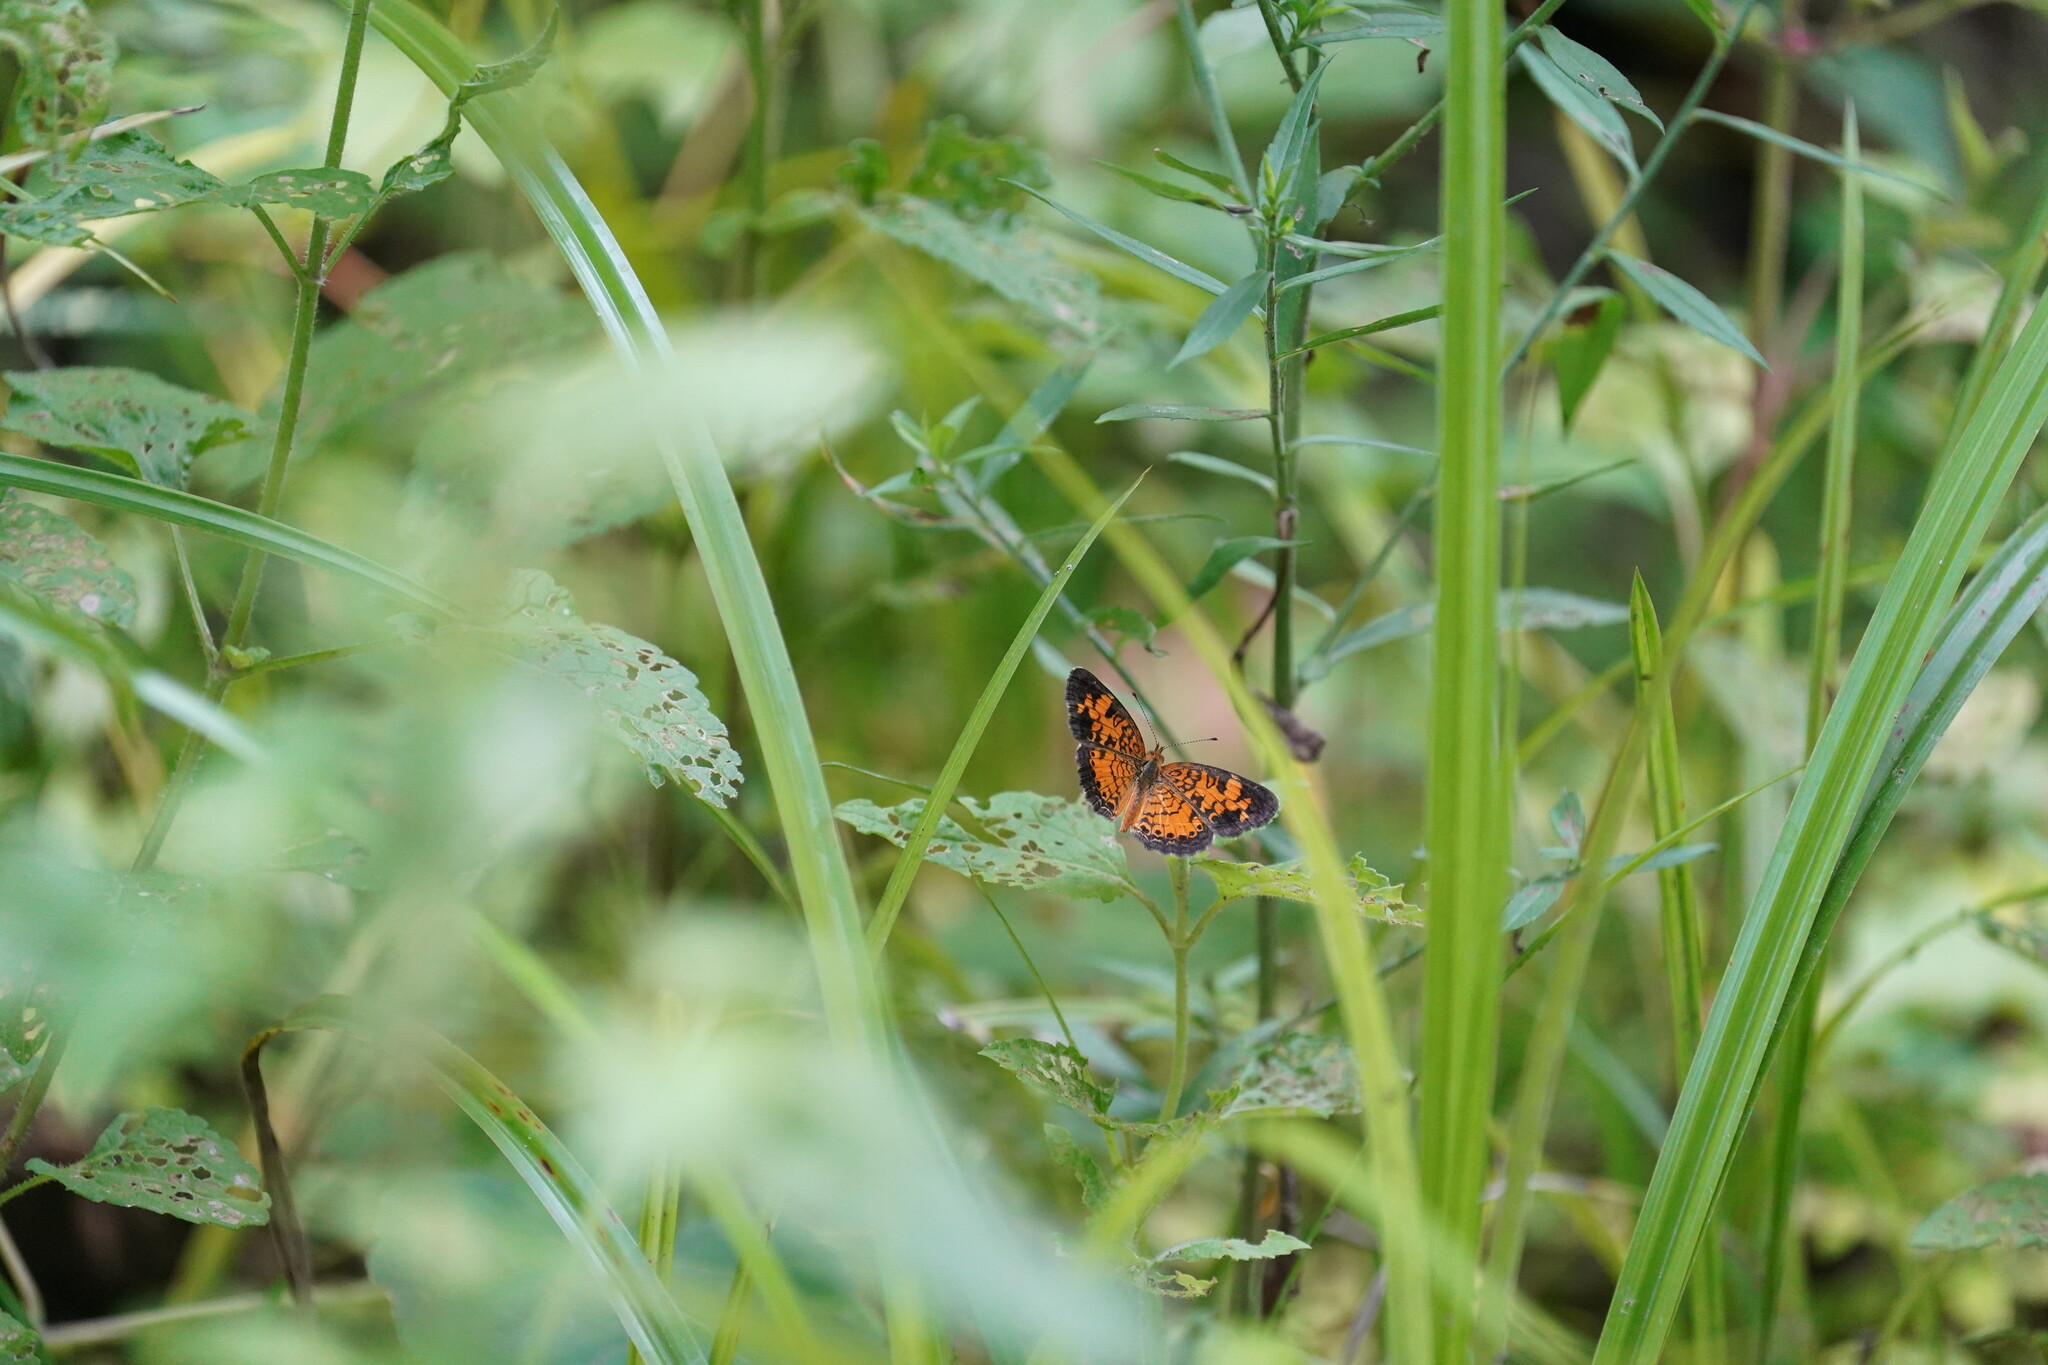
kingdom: Animalia
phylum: Arthropoda
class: Insecta
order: Lepidoptera
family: Nymphalidae
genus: Phyciodes
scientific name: Phyciodes tharos
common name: Pearl crescent
